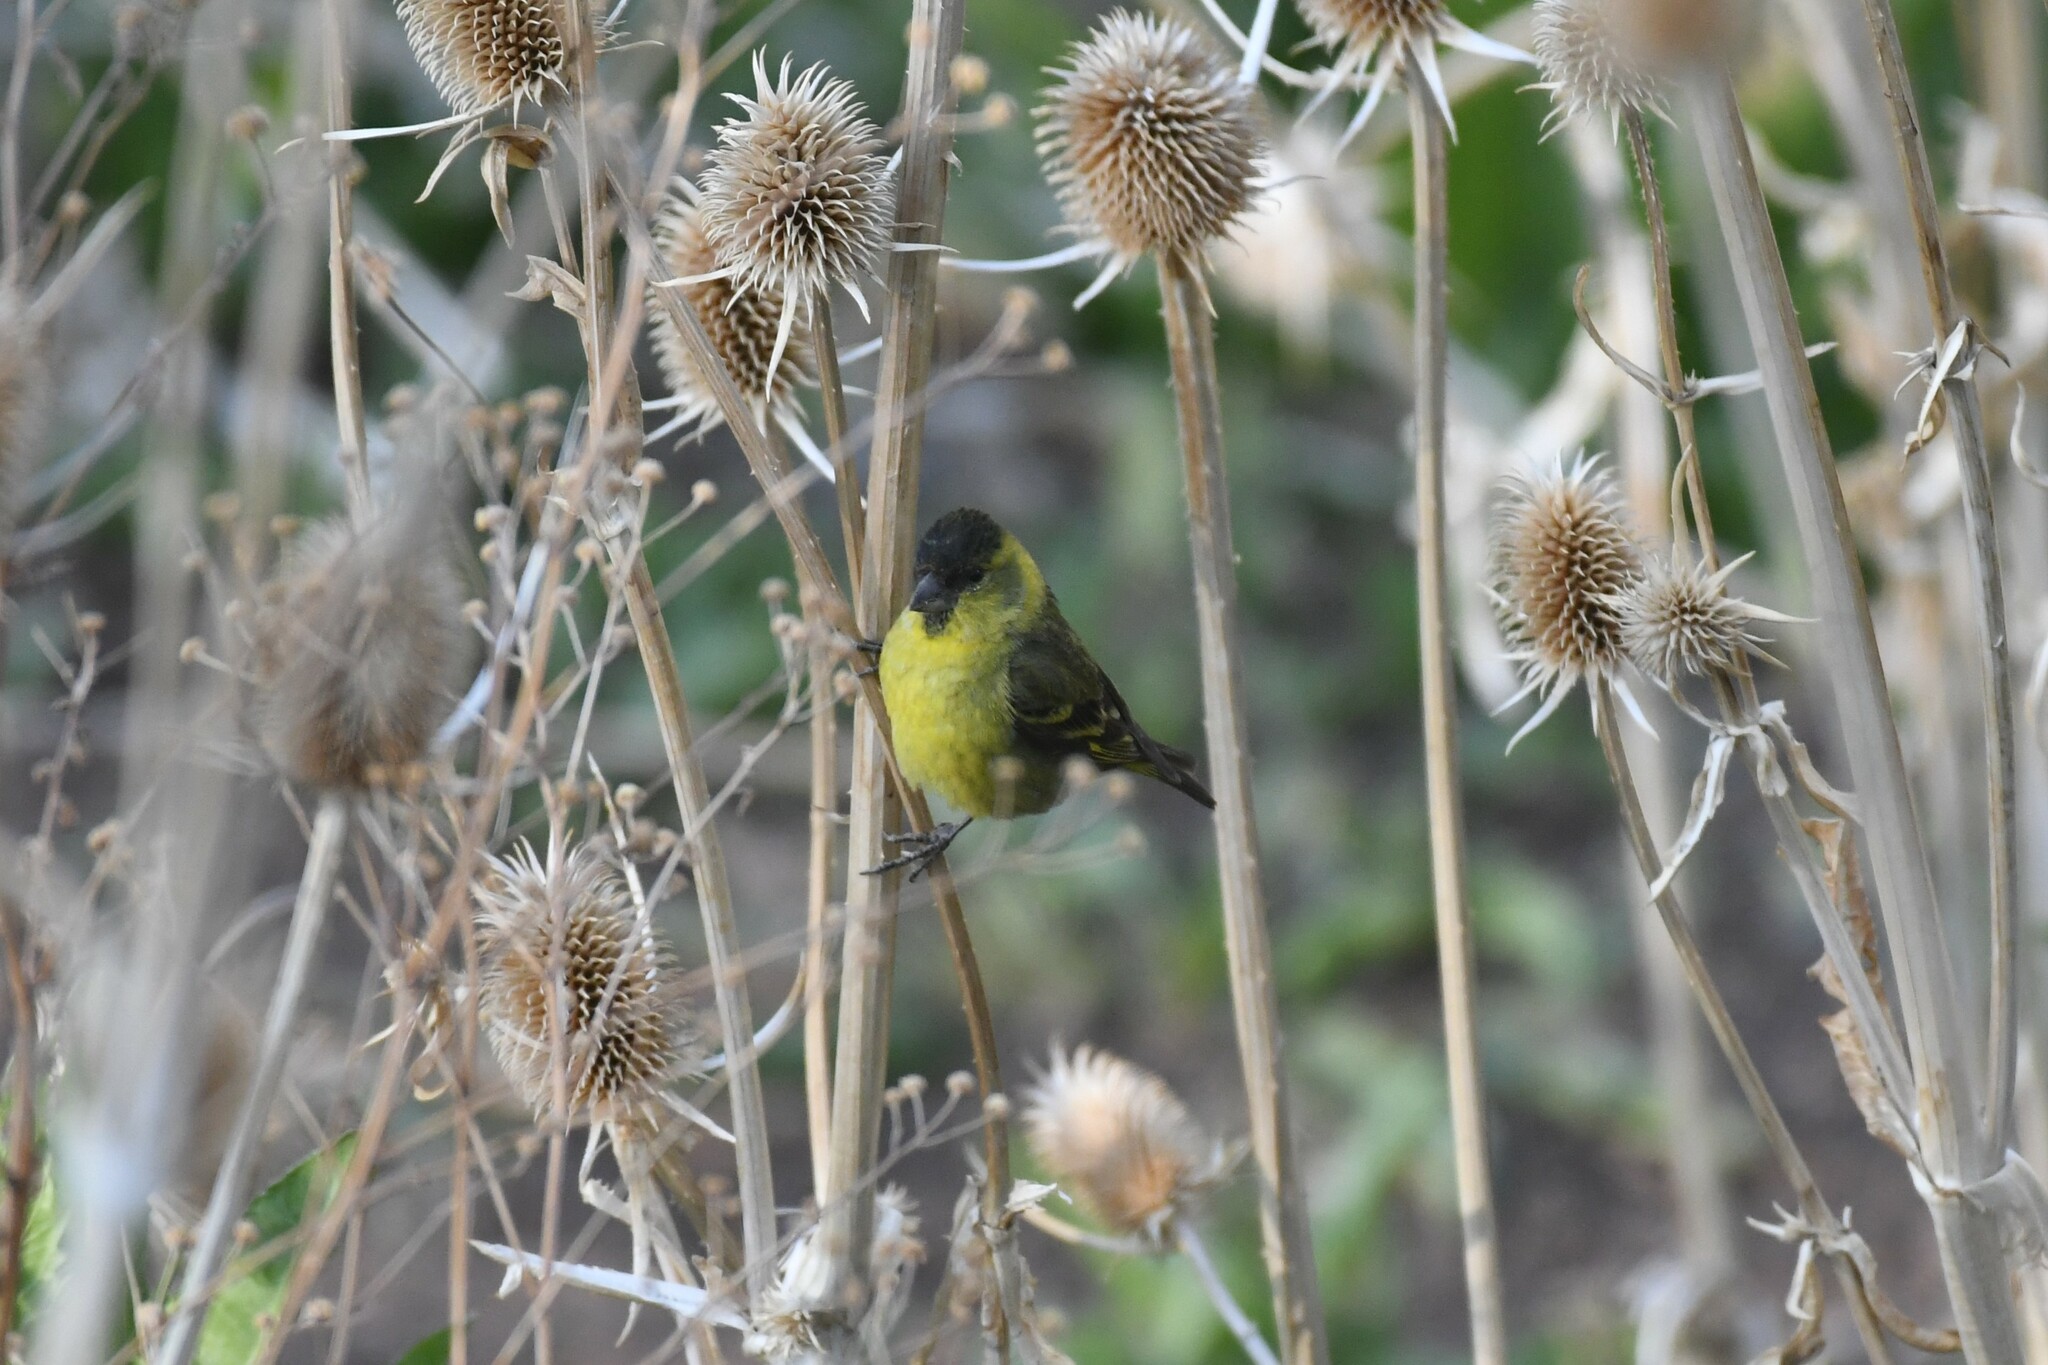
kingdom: Animalia
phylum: Chordata
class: Aves
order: Passeriformes
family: Fringillidae
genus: Spinus
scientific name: Spinus barbatus
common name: Black-chinned siskin
